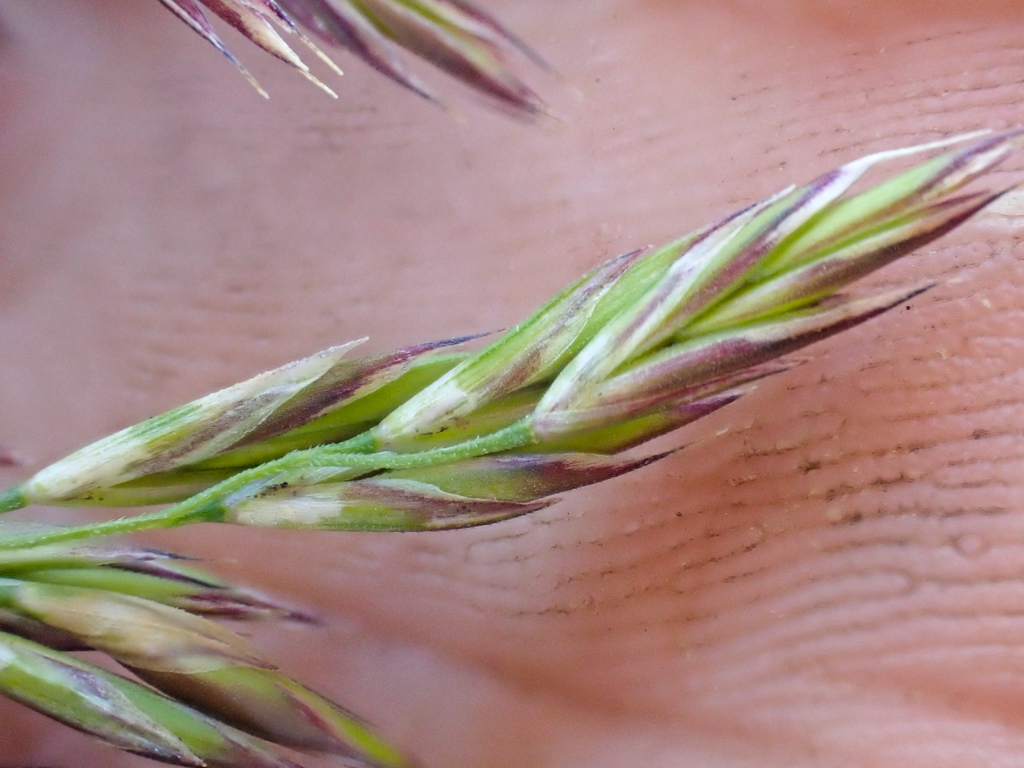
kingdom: Plantae
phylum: Tracheophyta
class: Liliopsida
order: Poales
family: Poaceae
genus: Festuca
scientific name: Festuca rubra
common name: Red fescue
